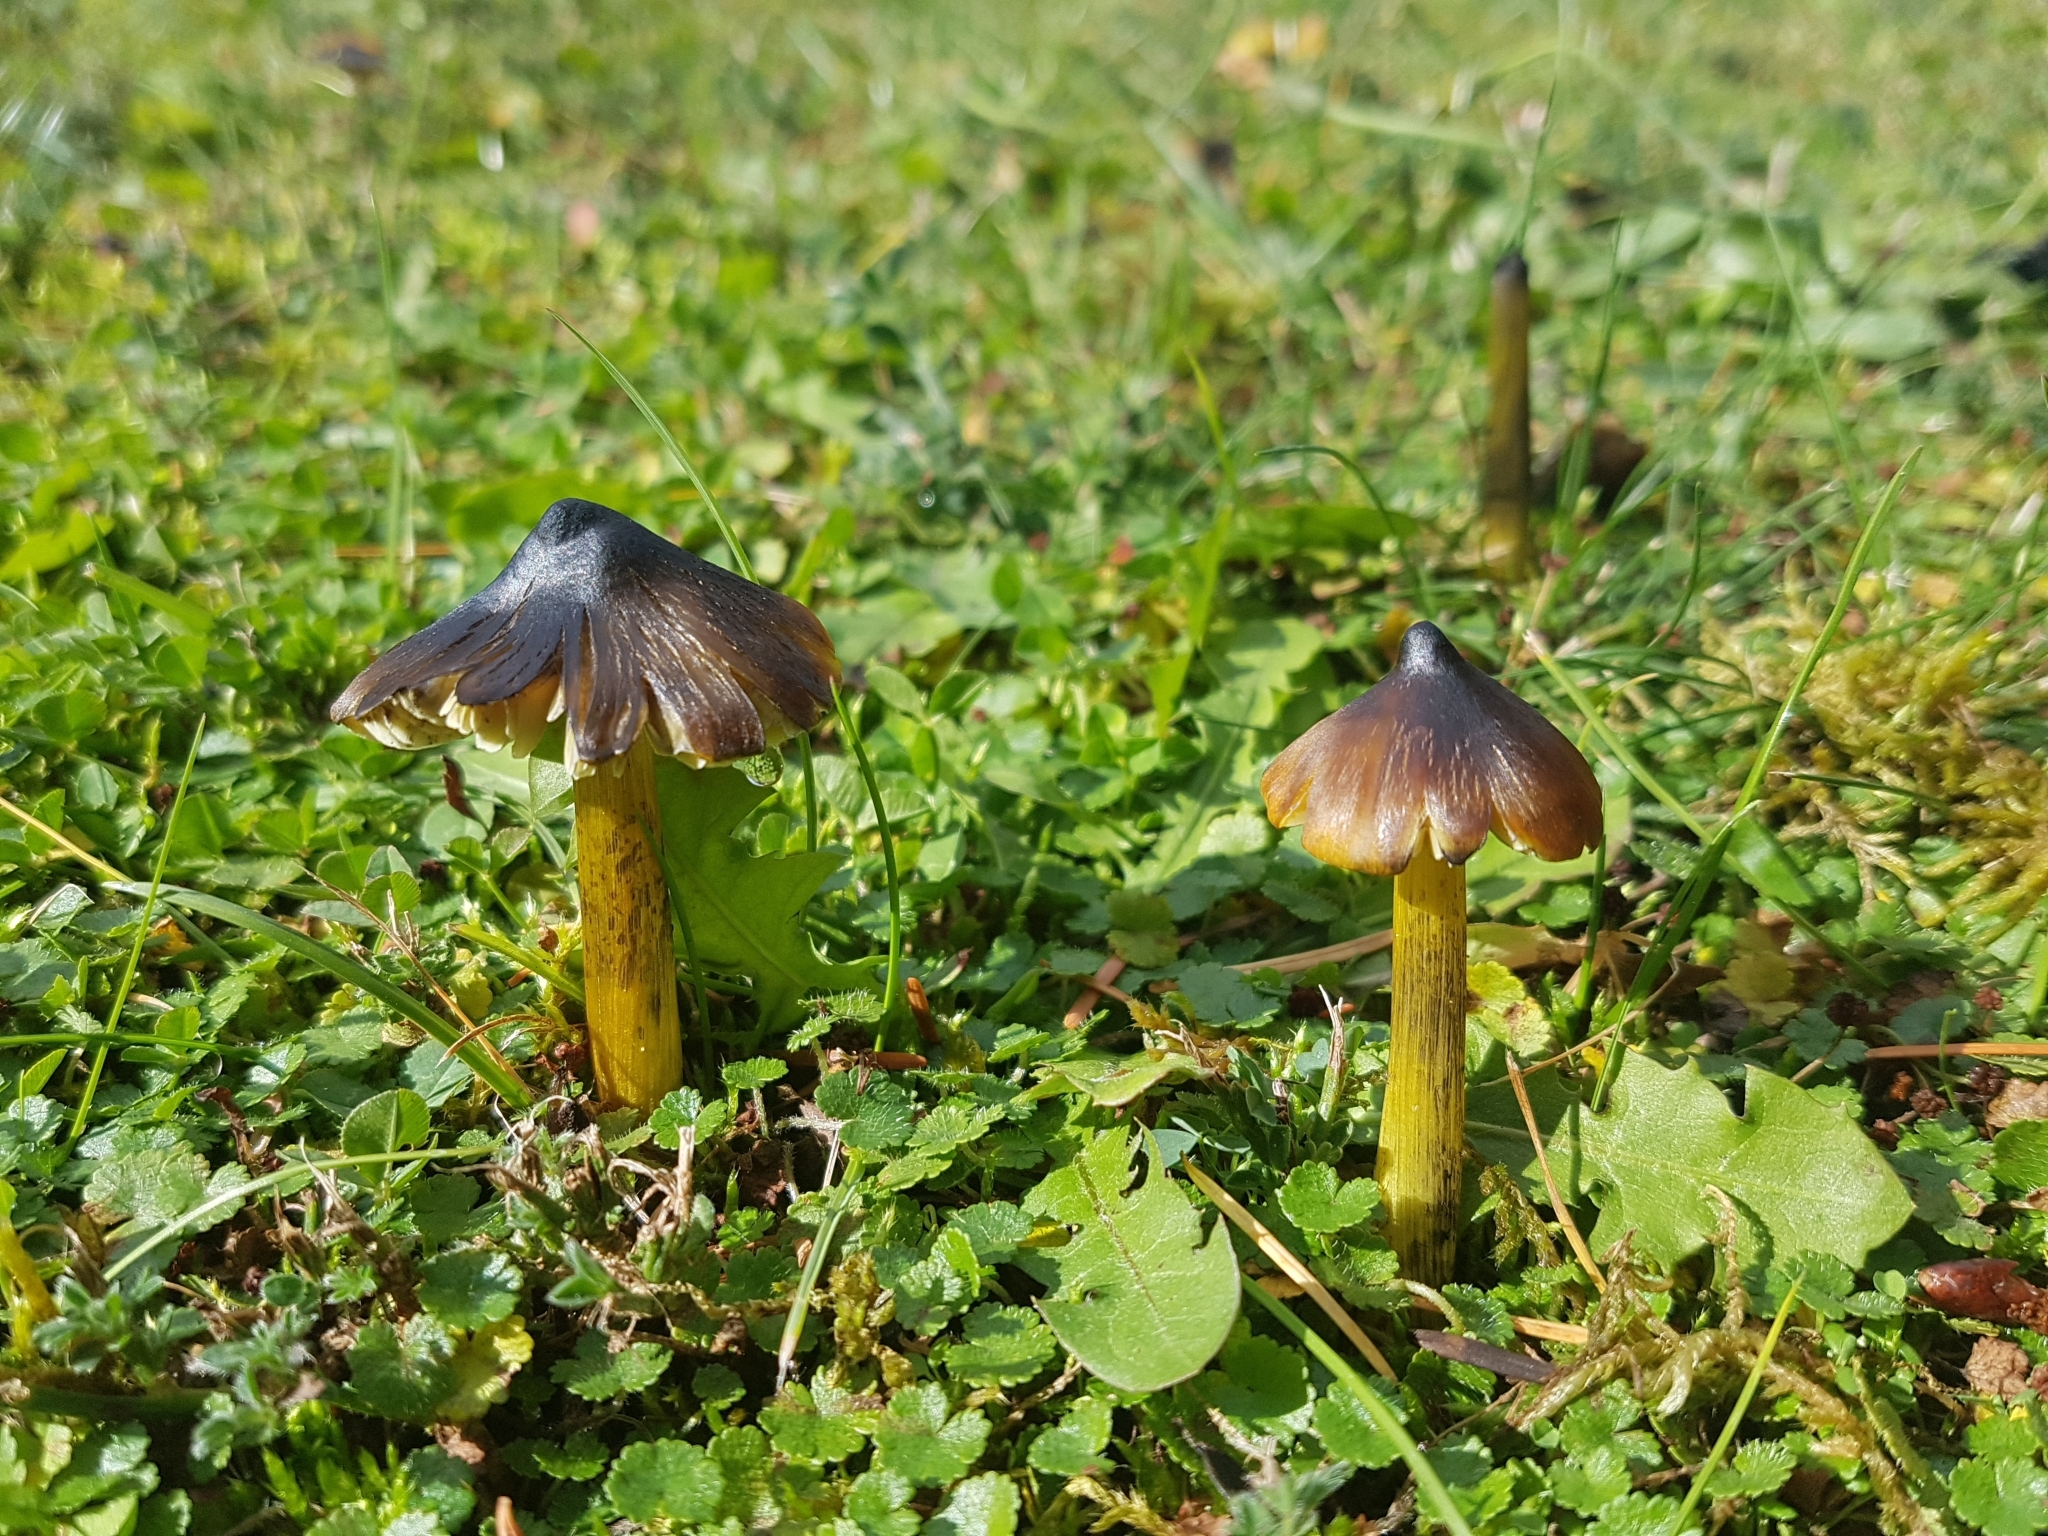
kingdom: Fungi
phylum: Basidiomycota
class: Agaricomycetes
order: Agaricales
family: Hygrophoraceae
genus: Hygrocybe
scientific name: Hygrocybe conica
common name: Blackening wax-cap
